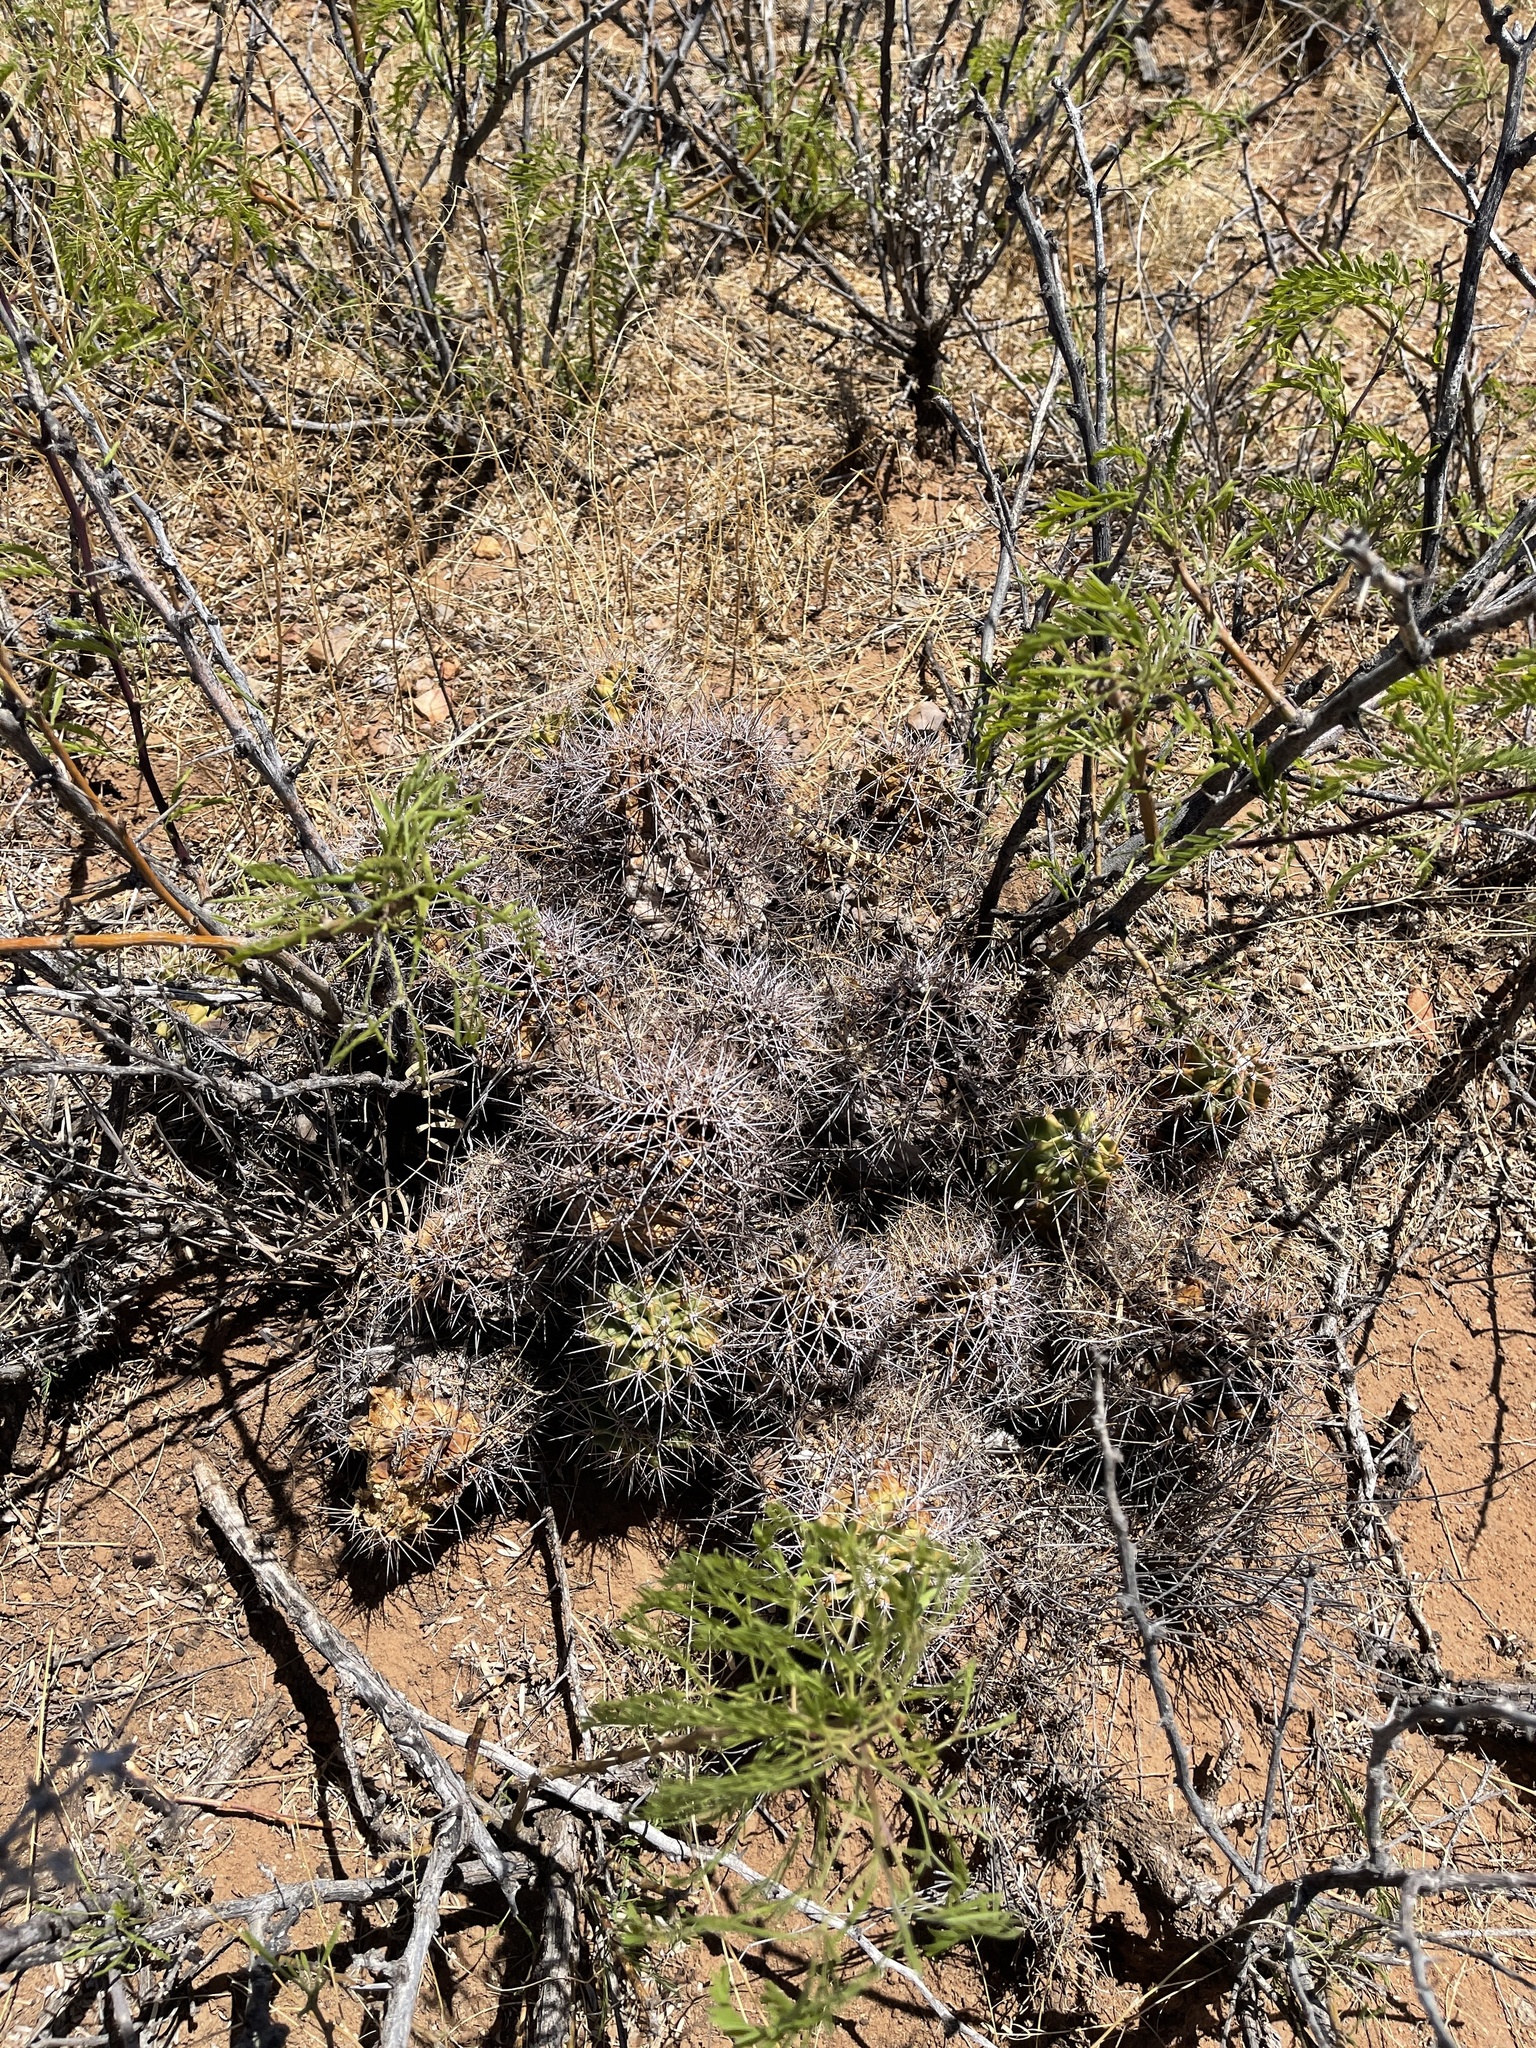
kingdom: Plantae
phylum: Tracheophyta
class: Magnoliopsida
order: Caryophyllales
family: Cactaceae
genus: Echinocereus
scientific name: Echinocereus coccineus
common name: Scarlet hedgehog cactus
